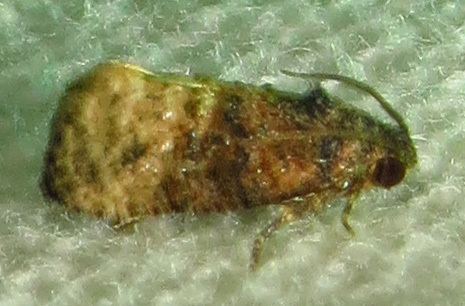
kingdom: Animalia
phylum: Arthropoda
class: Insecta
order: Lepidoptera
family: Tortricidae
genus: Ecdytolopha
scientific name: Ecdytolopha mana
